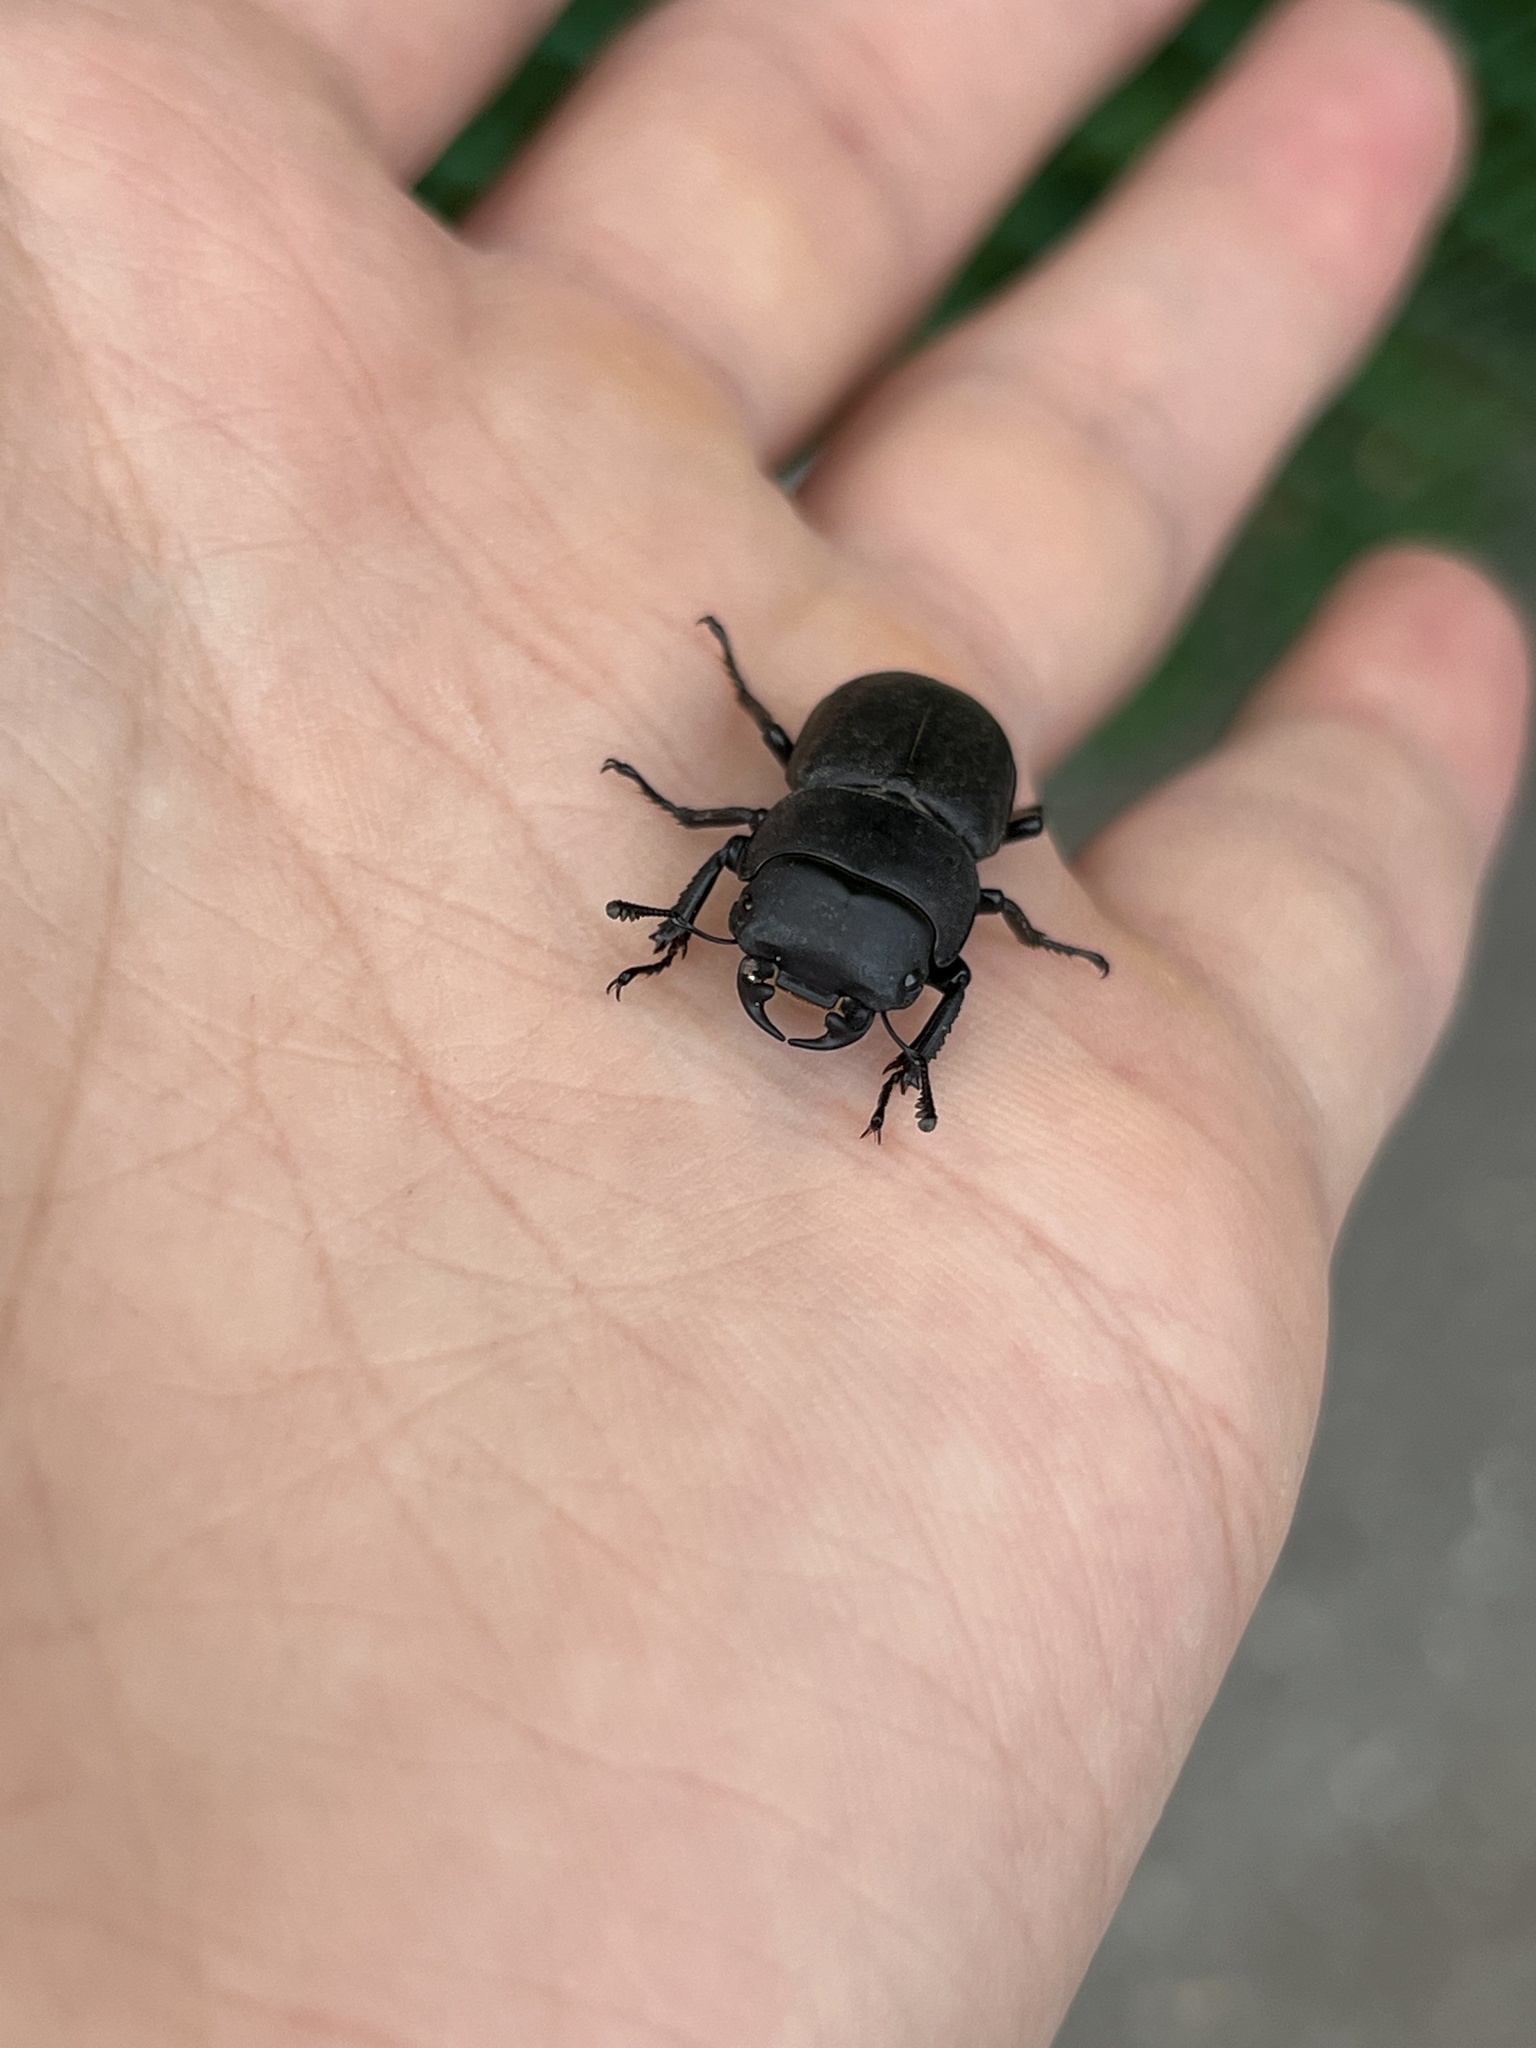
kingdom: Animalia
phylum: Arthropoda
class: Insecta
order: Coleoptera
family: Lucanidae
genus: Dorcus
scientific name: Dorcus parallelipipedus
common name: Lesser stag beetle
